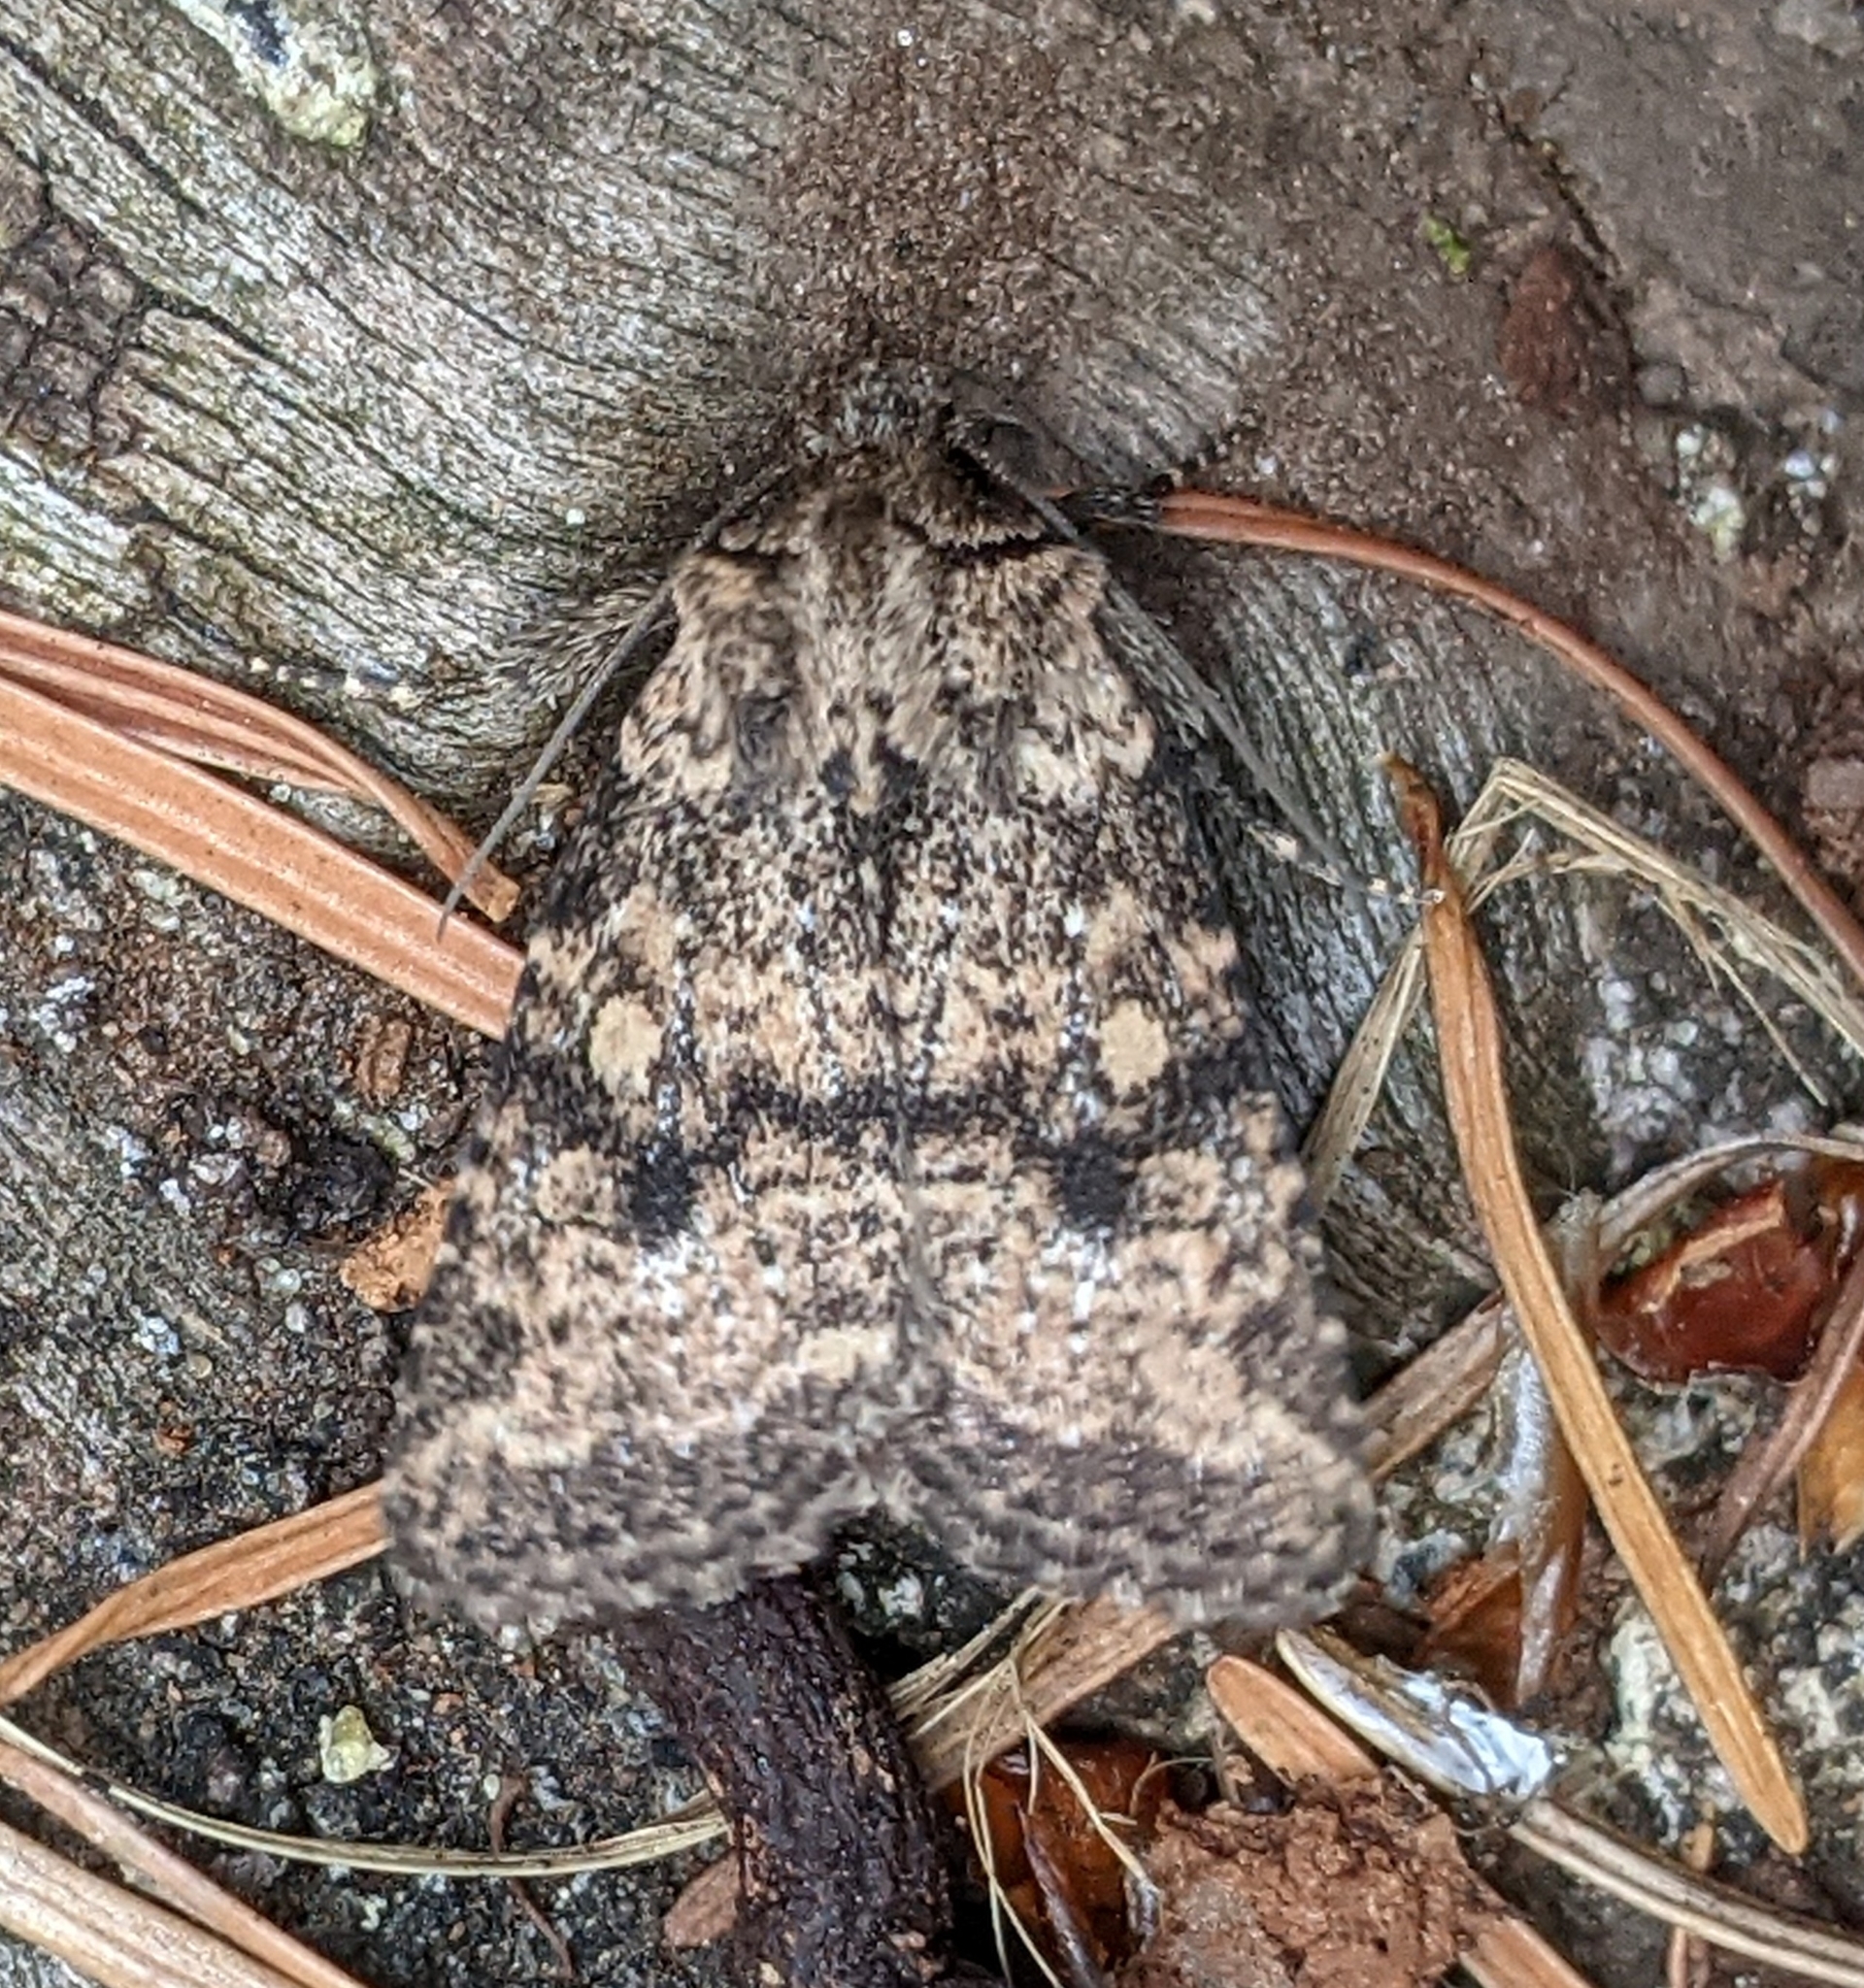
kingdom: Animalia
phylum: Arthropoda
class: Insecta
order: Lepidoptera
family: Noctuidae
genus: Homorthodes
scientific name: Homorthodes hanhami
